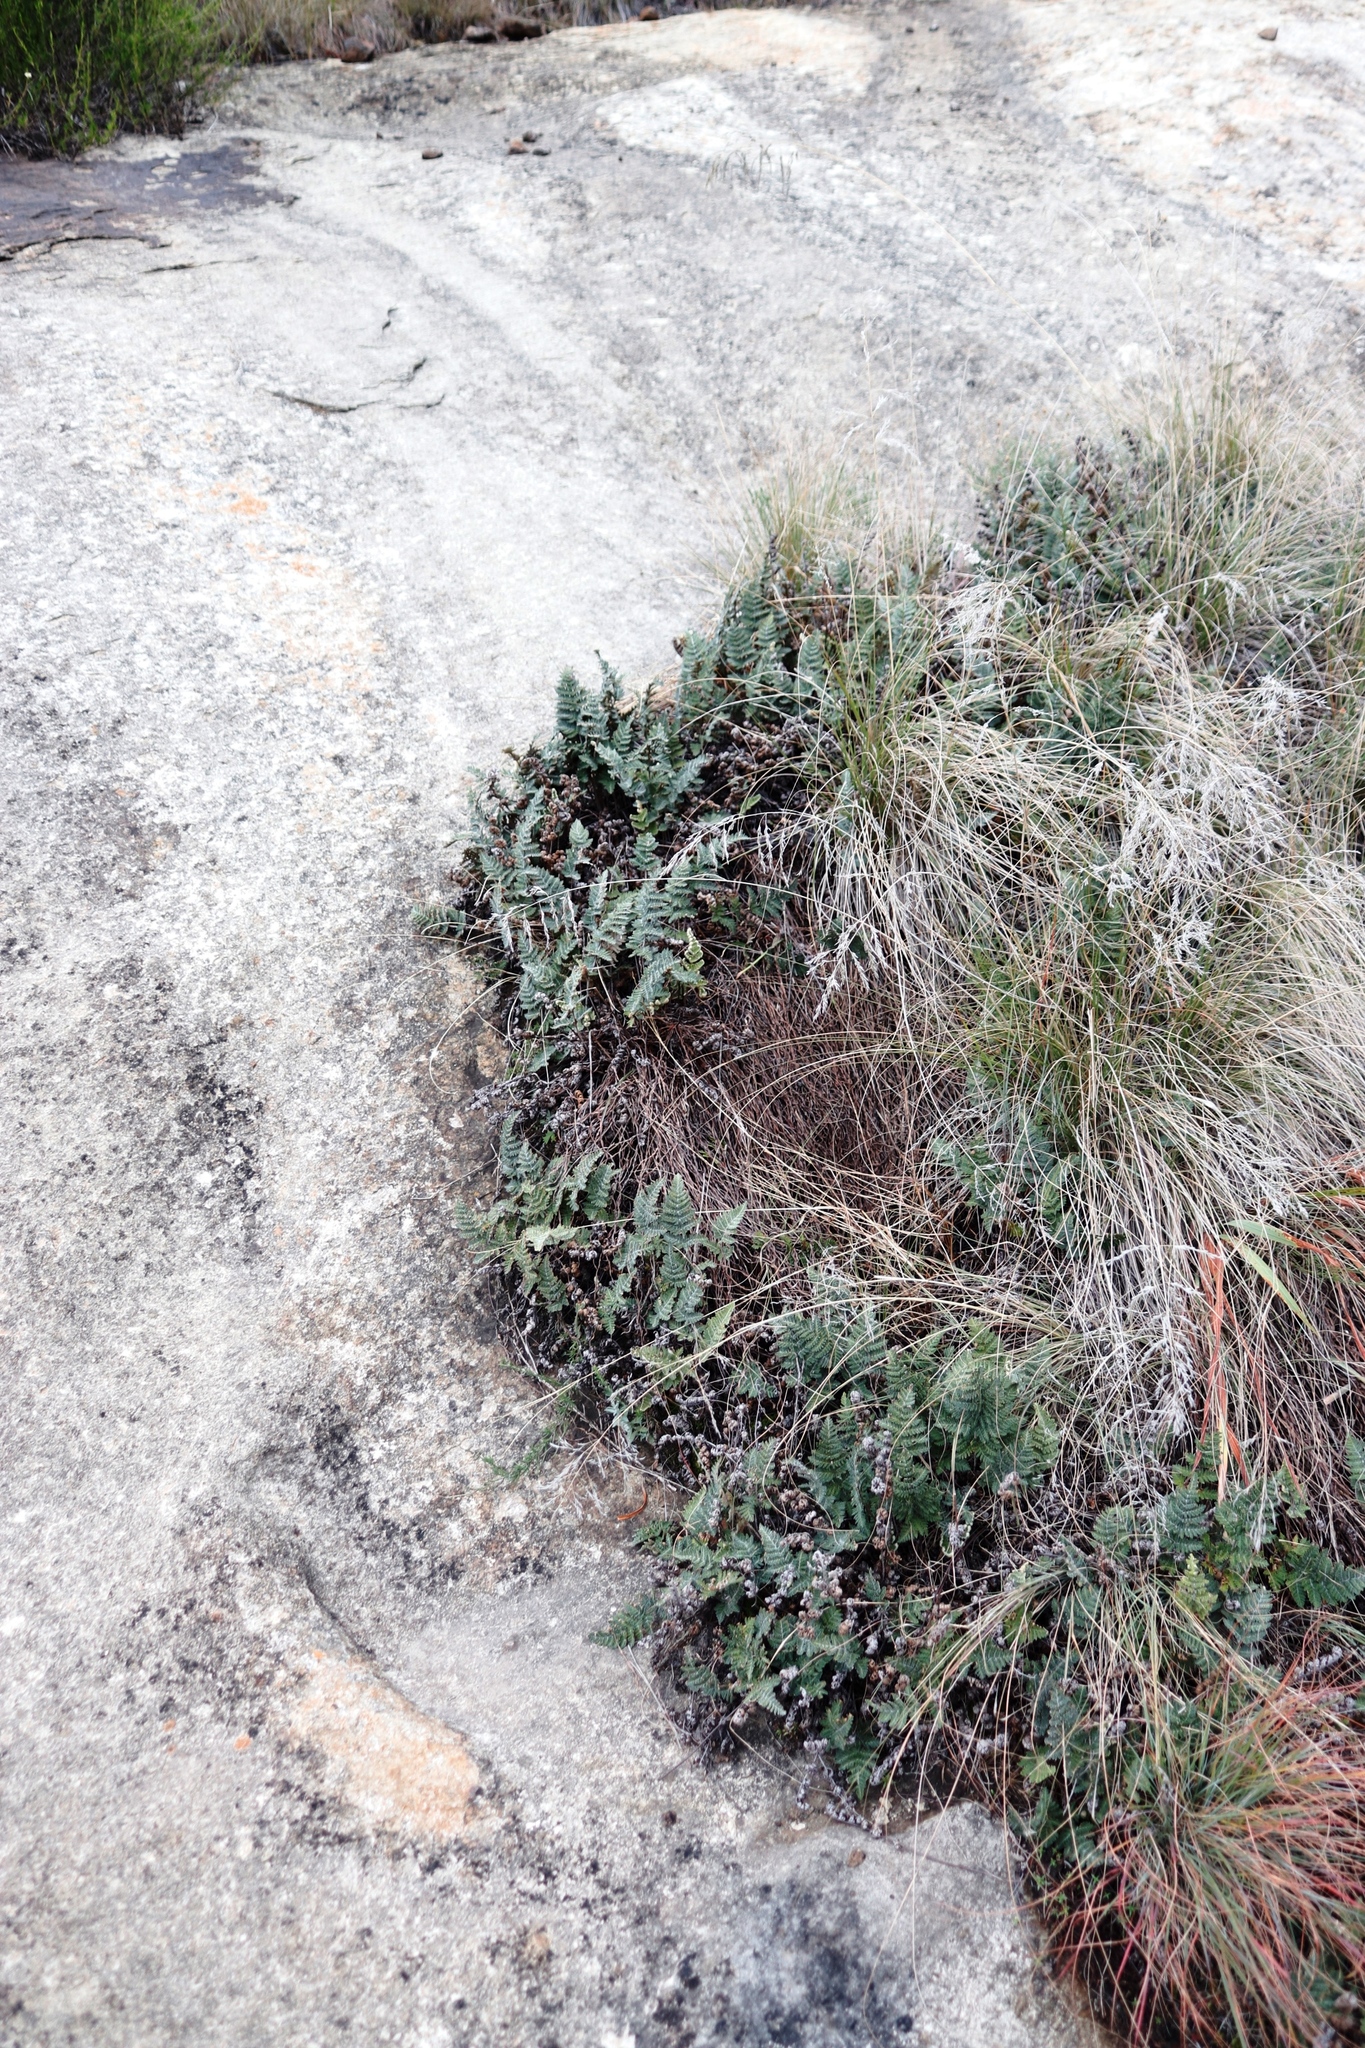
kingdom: Plantae
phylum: Tracheophyta
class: Polypodiopsida
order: Polypodiales
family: Pteridaceae
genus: Cheilanthes
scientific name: Cheilanthes eckloniana
